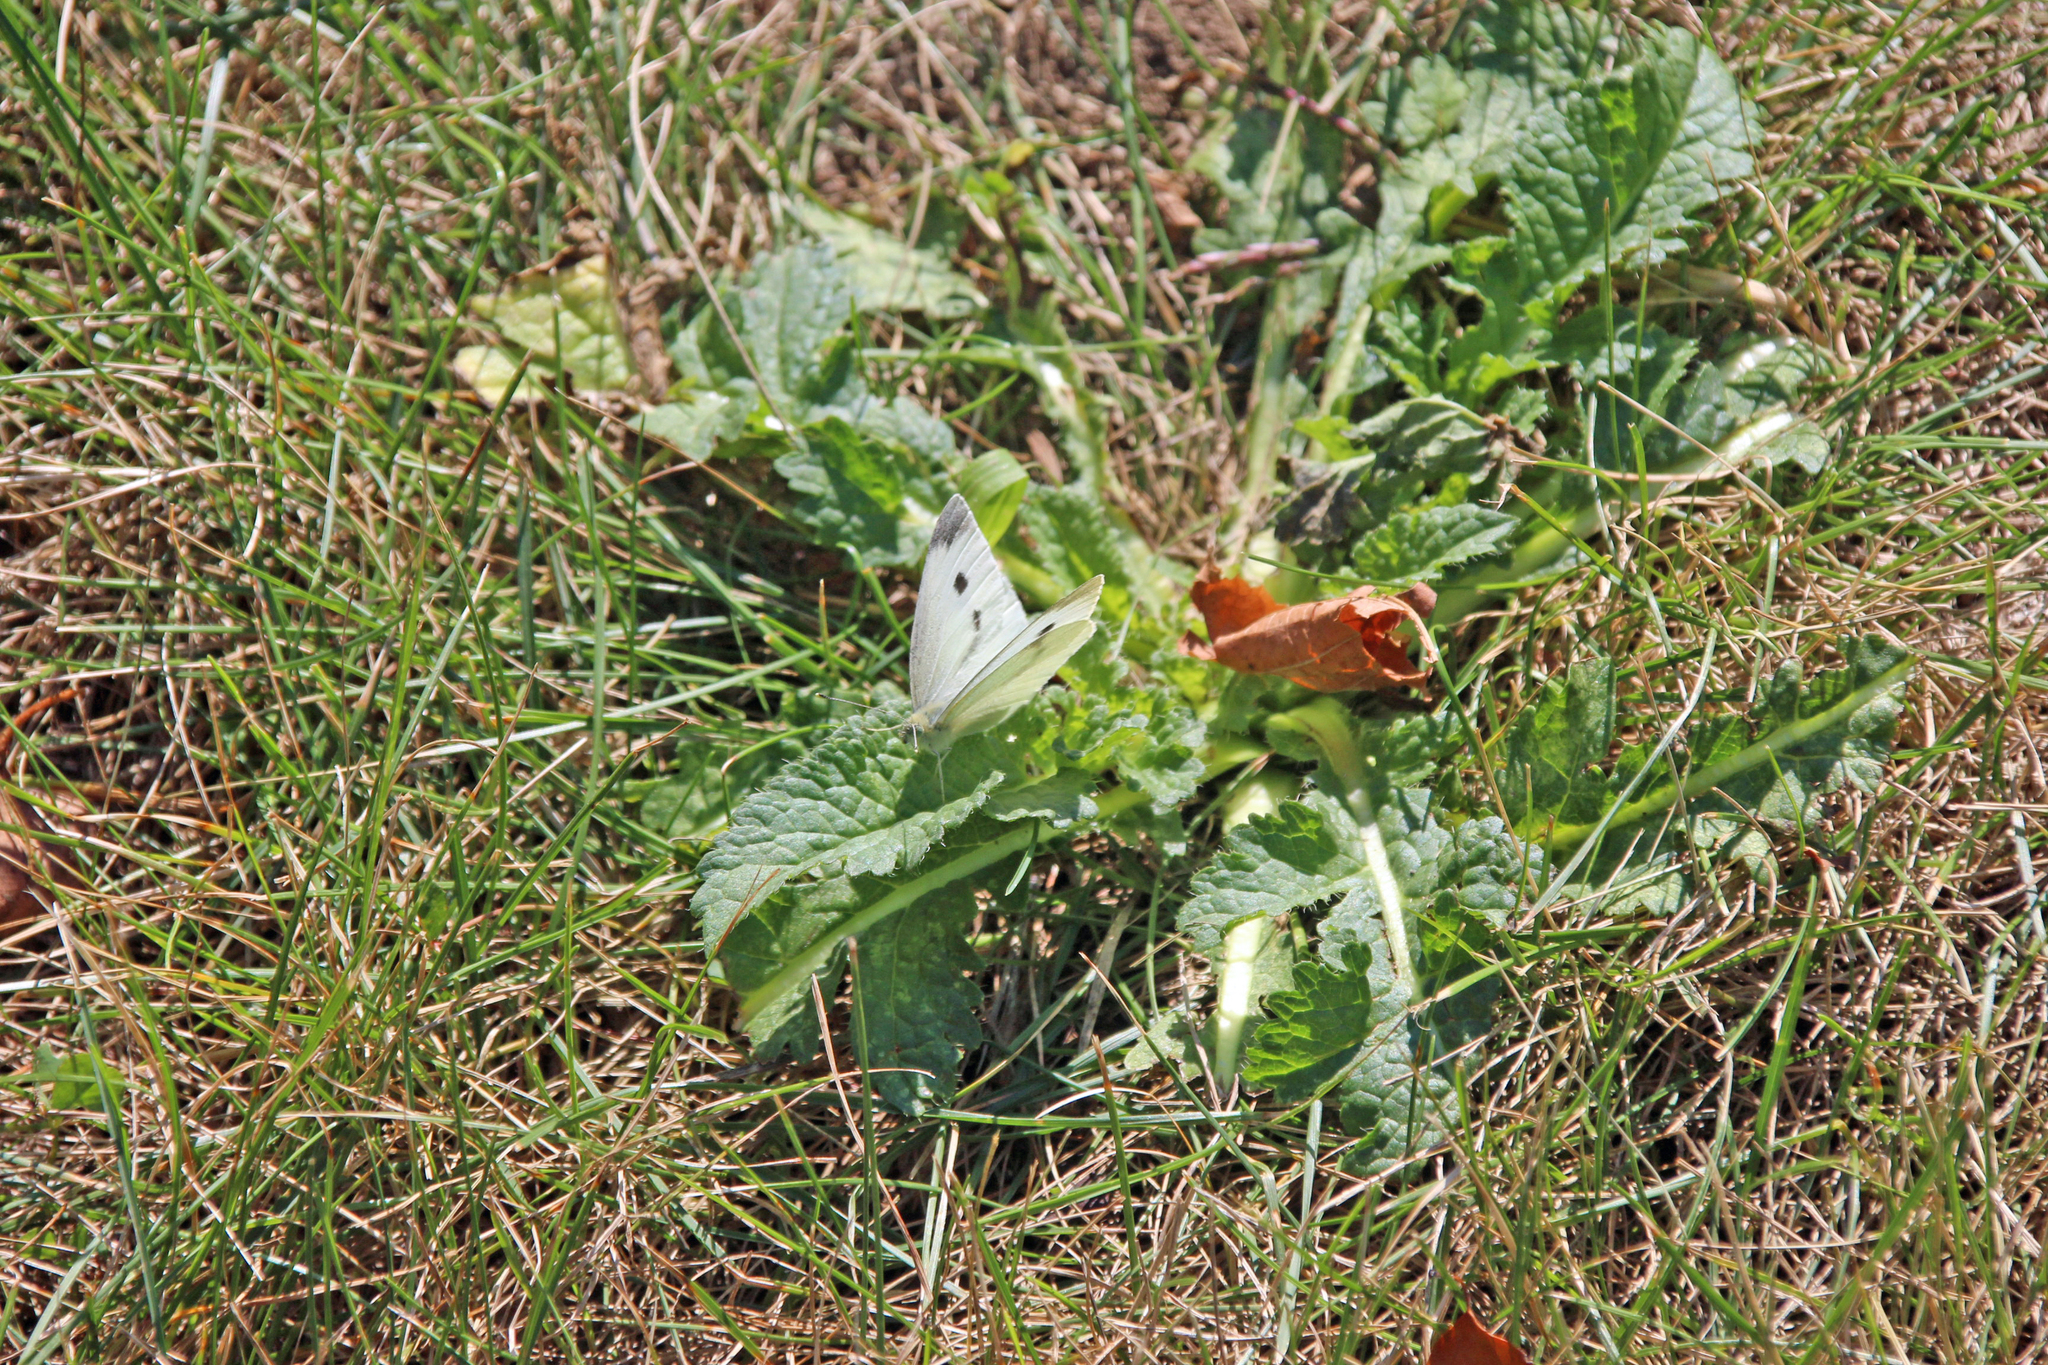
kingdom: Animalia
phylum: Arthropoda
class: Insecta
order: Lepidoptera
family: Pieridae
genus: Pieris
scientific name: Pieris rapae
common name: Small white
